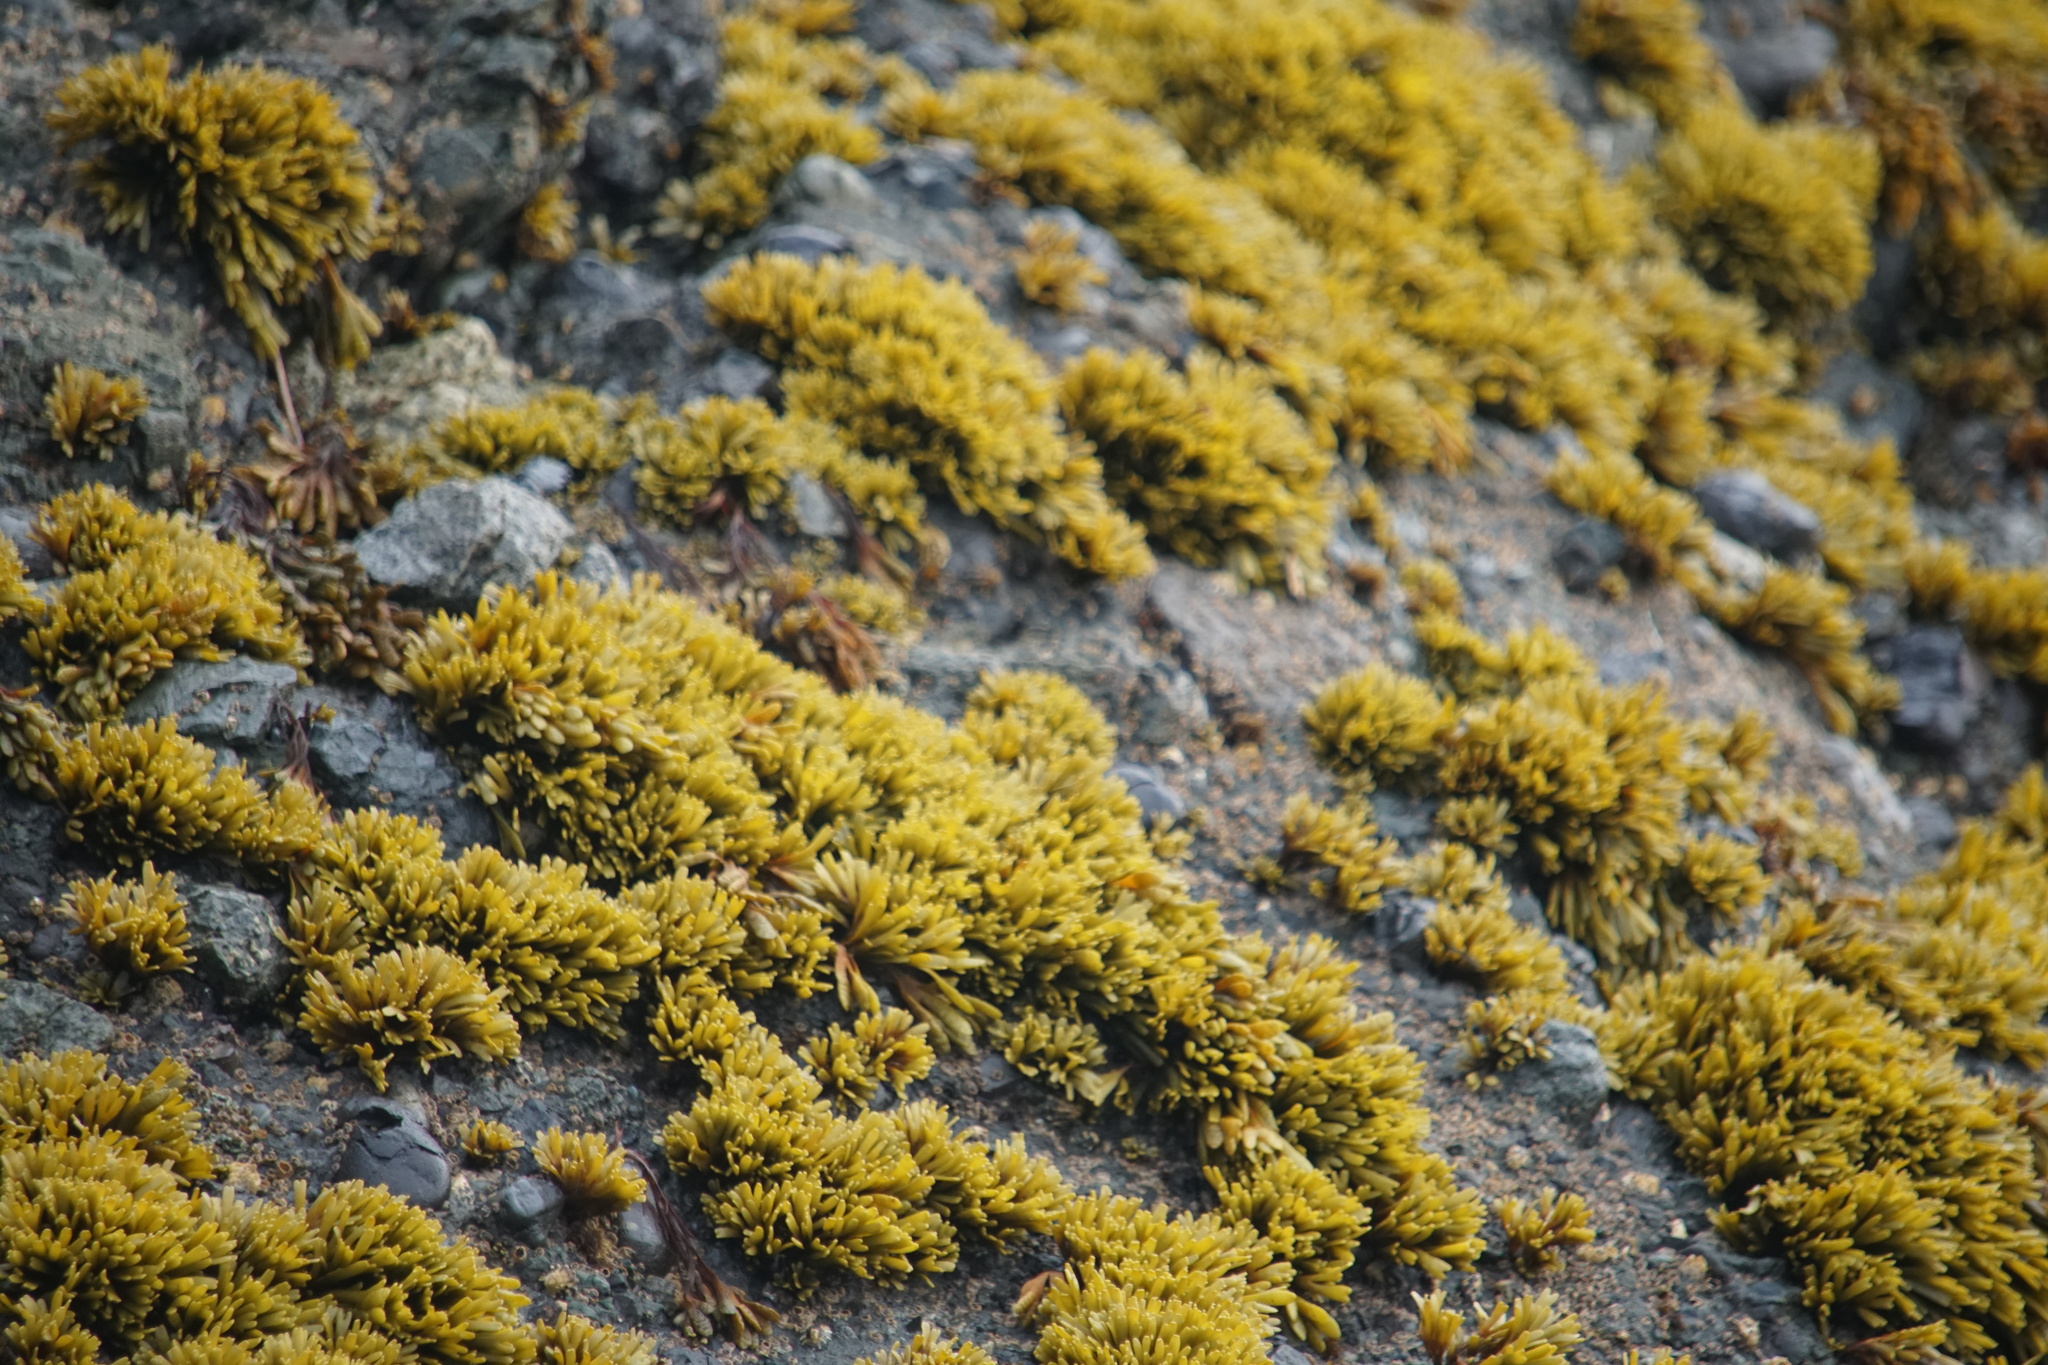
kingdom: Chromista
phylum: Ochrophyta
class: Phaeophyceae
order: Fucales
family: Fucaceae
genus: Pelvetiopsis
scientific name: Pelvetiopsis limitata
